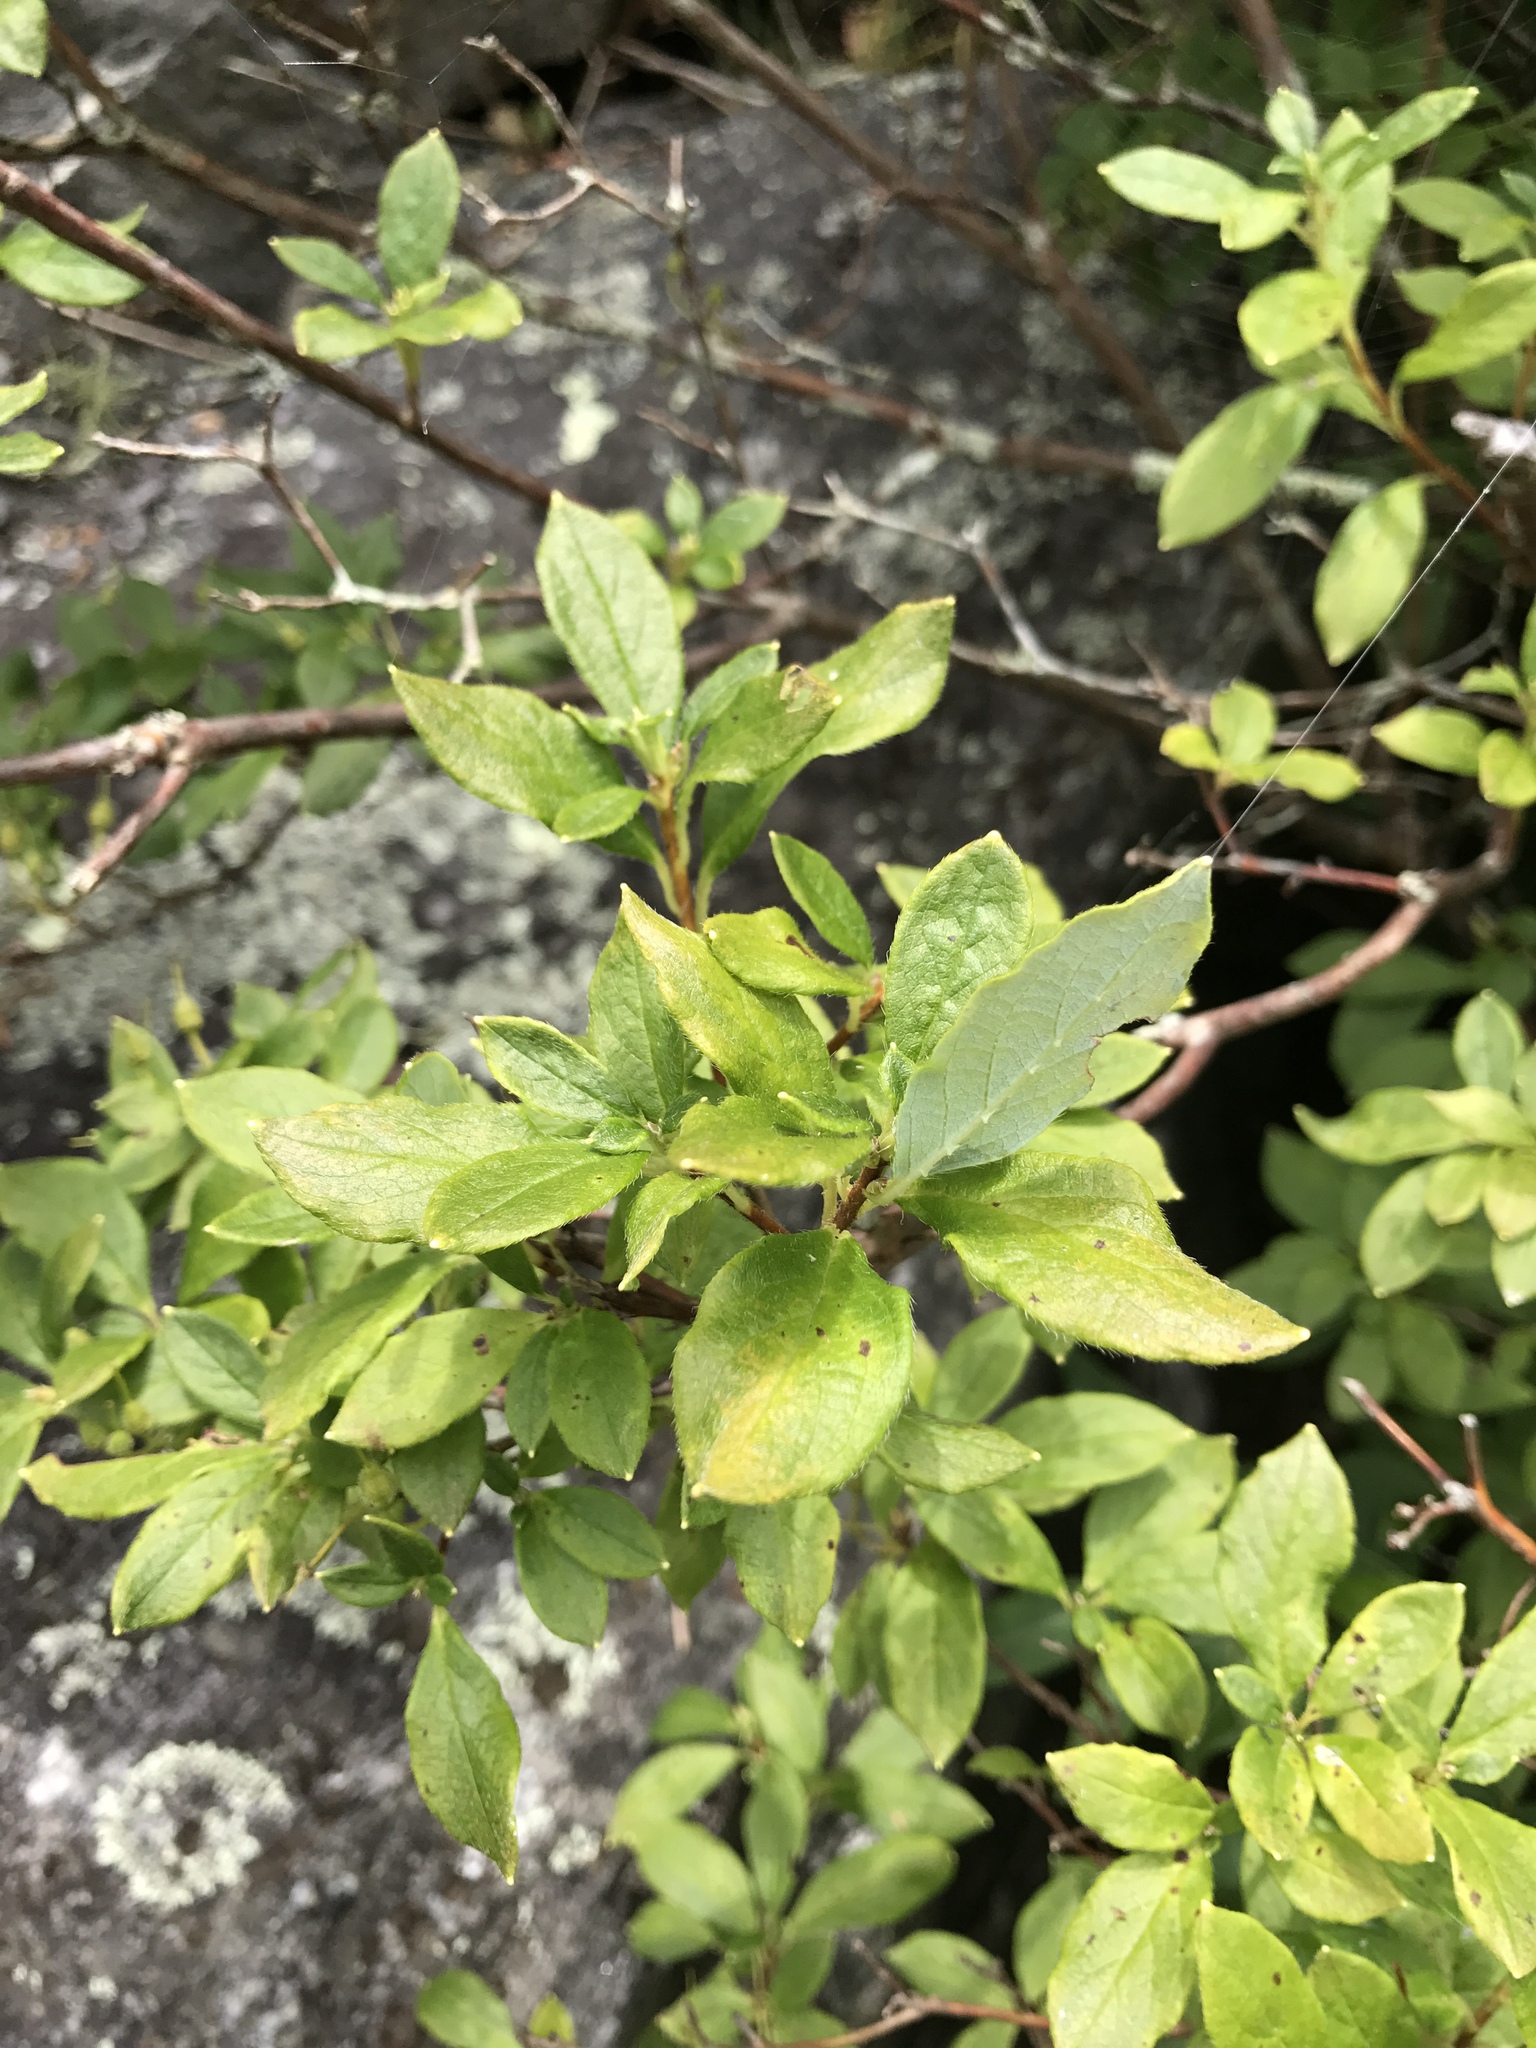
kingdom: Plantae
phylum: Tracheophyta
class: Magnoliopsida
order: Ericales
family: Ericaceae
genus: Rhododendron
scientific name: Rhododendron pilosum
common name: Hairy minniebush
